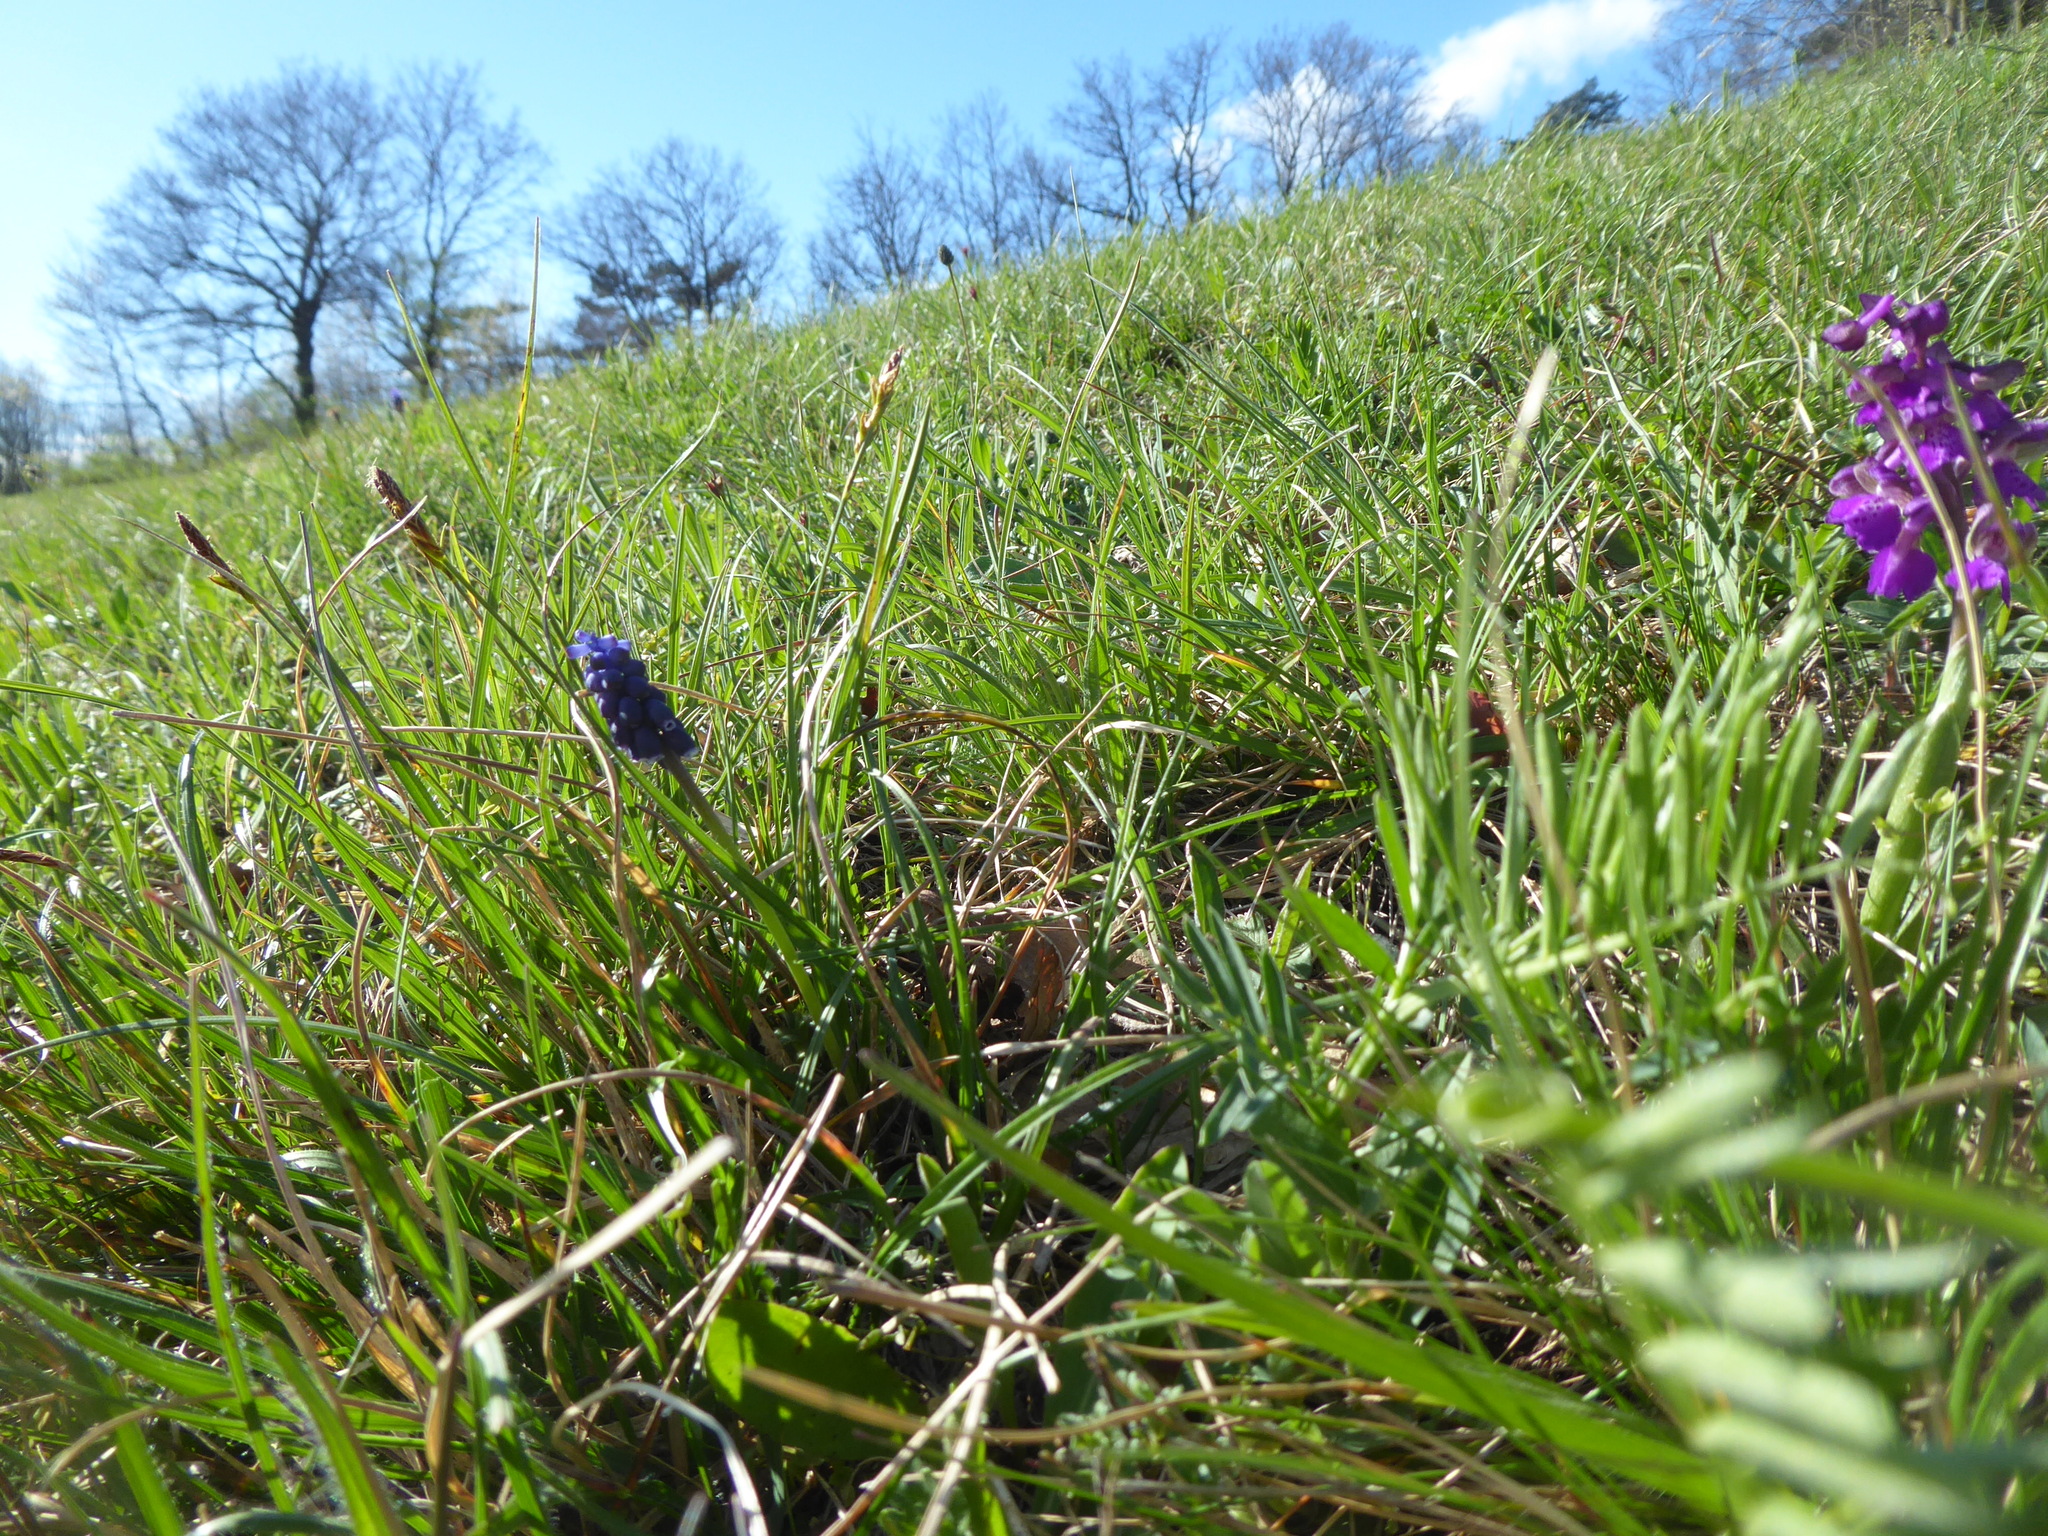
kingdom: Plantae
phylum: Tracheophyta
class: Liliopsida
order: Asparagales
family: Orchidaceae
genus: Anacamptis
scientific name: Anacamptis morio
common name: Green-winged orchid
